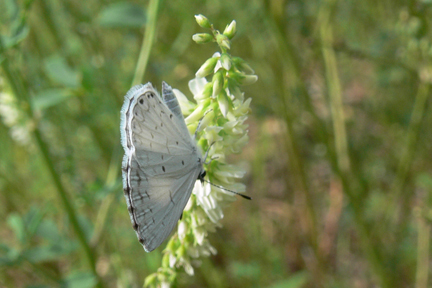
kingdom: Animalia
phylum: Arthropoda
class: Insecta
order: Lepidoptera
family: Lycaenidae
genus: Cyaniris
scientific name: Cyaniris neglecta
